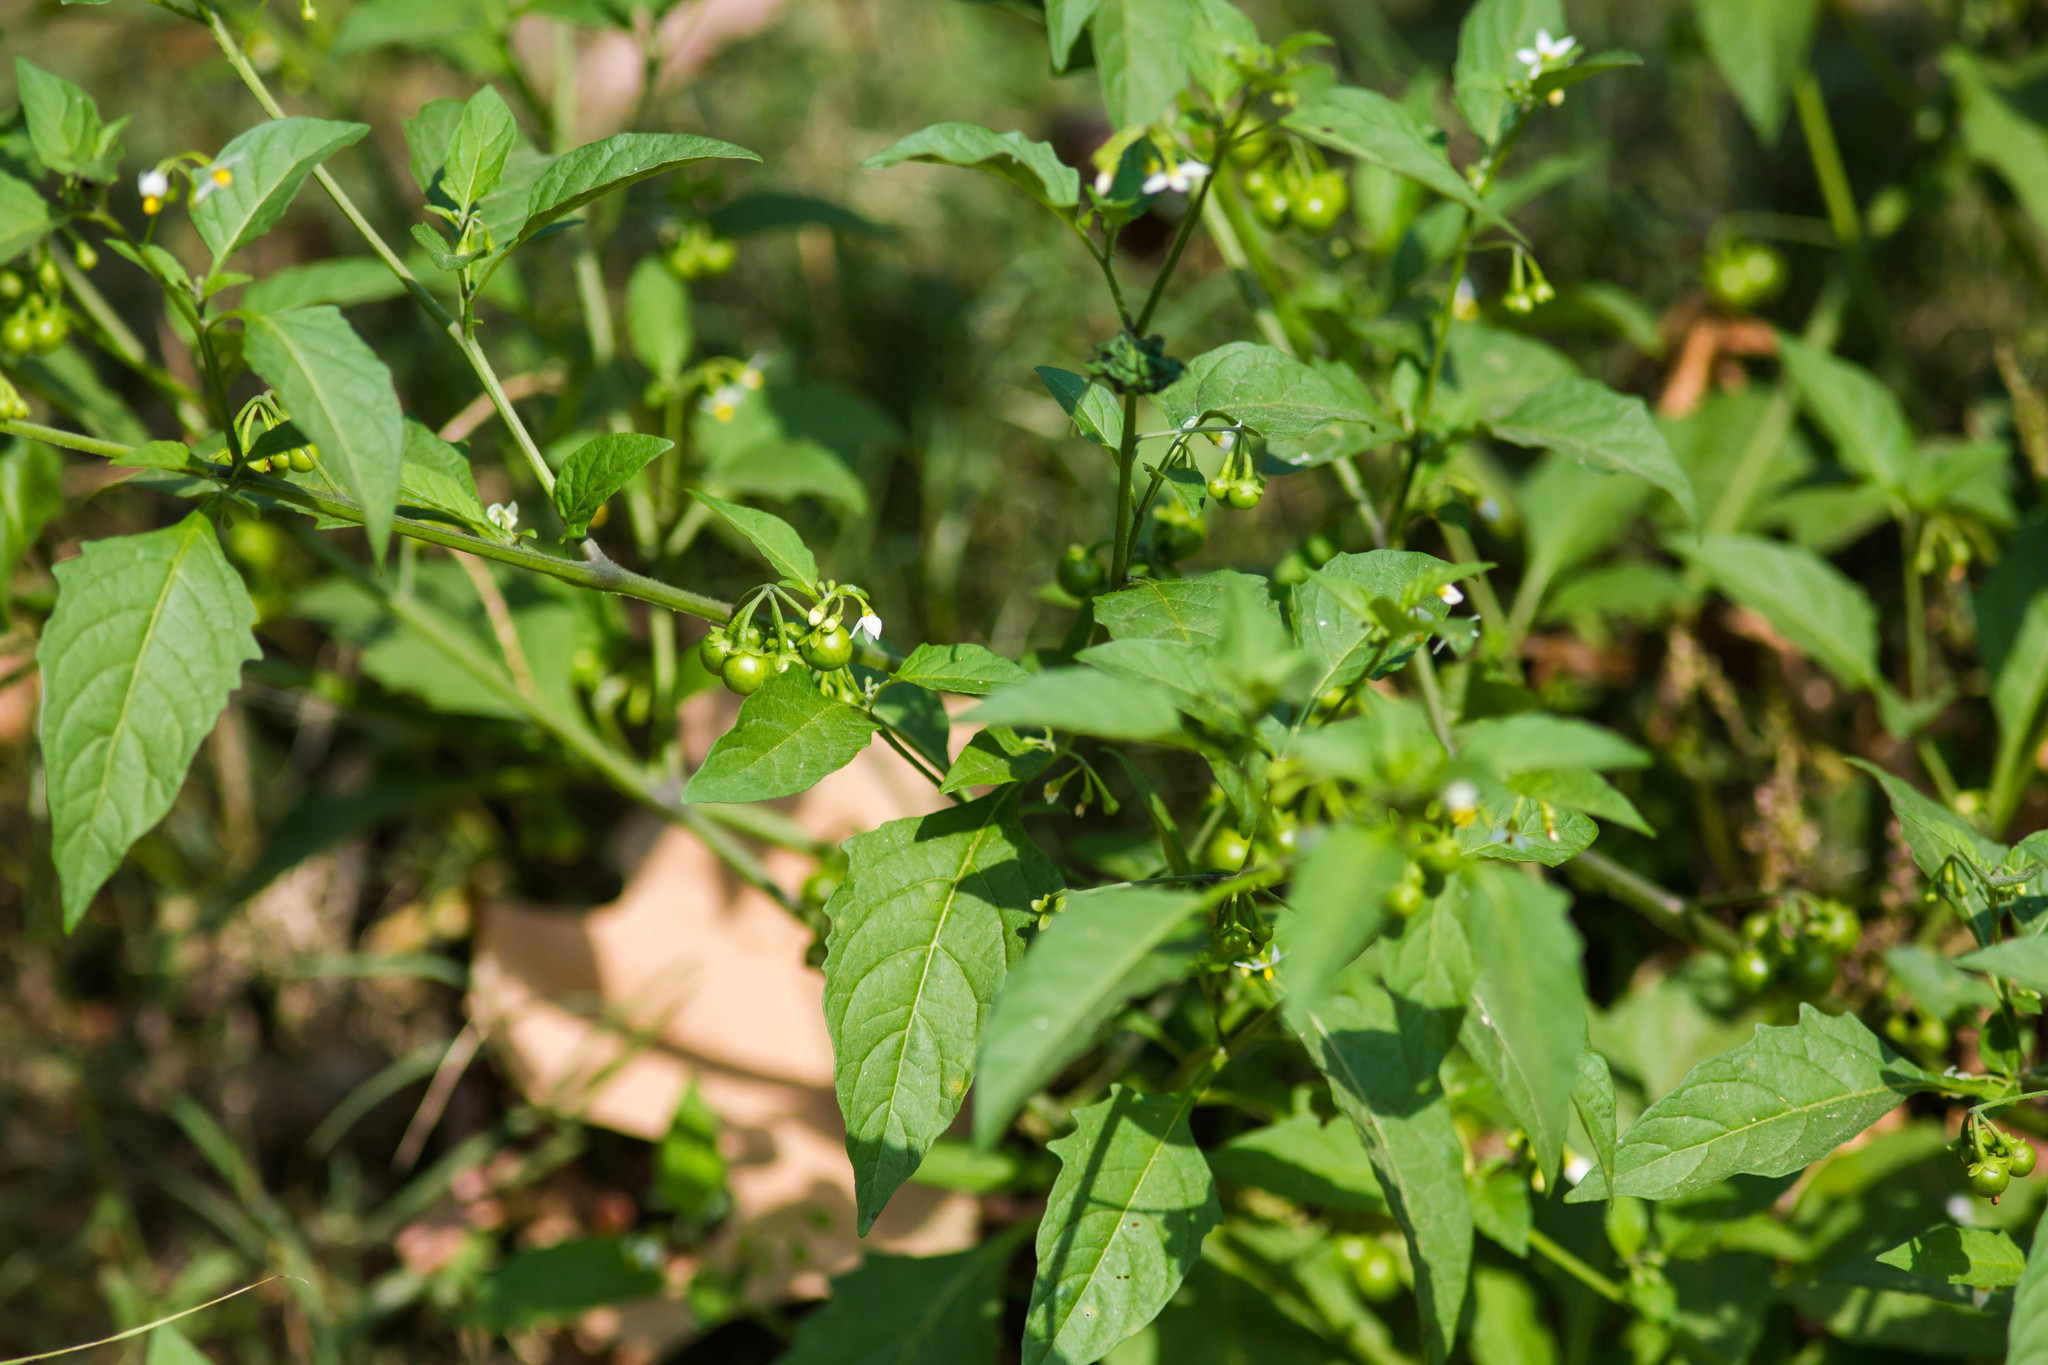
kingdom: Plantae
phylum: Tracheophyta
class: Magnoliopsida
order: Solanales
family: Solanaceae
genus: Solanum
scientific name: Solanum emulans
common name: Eastern black nightshade
